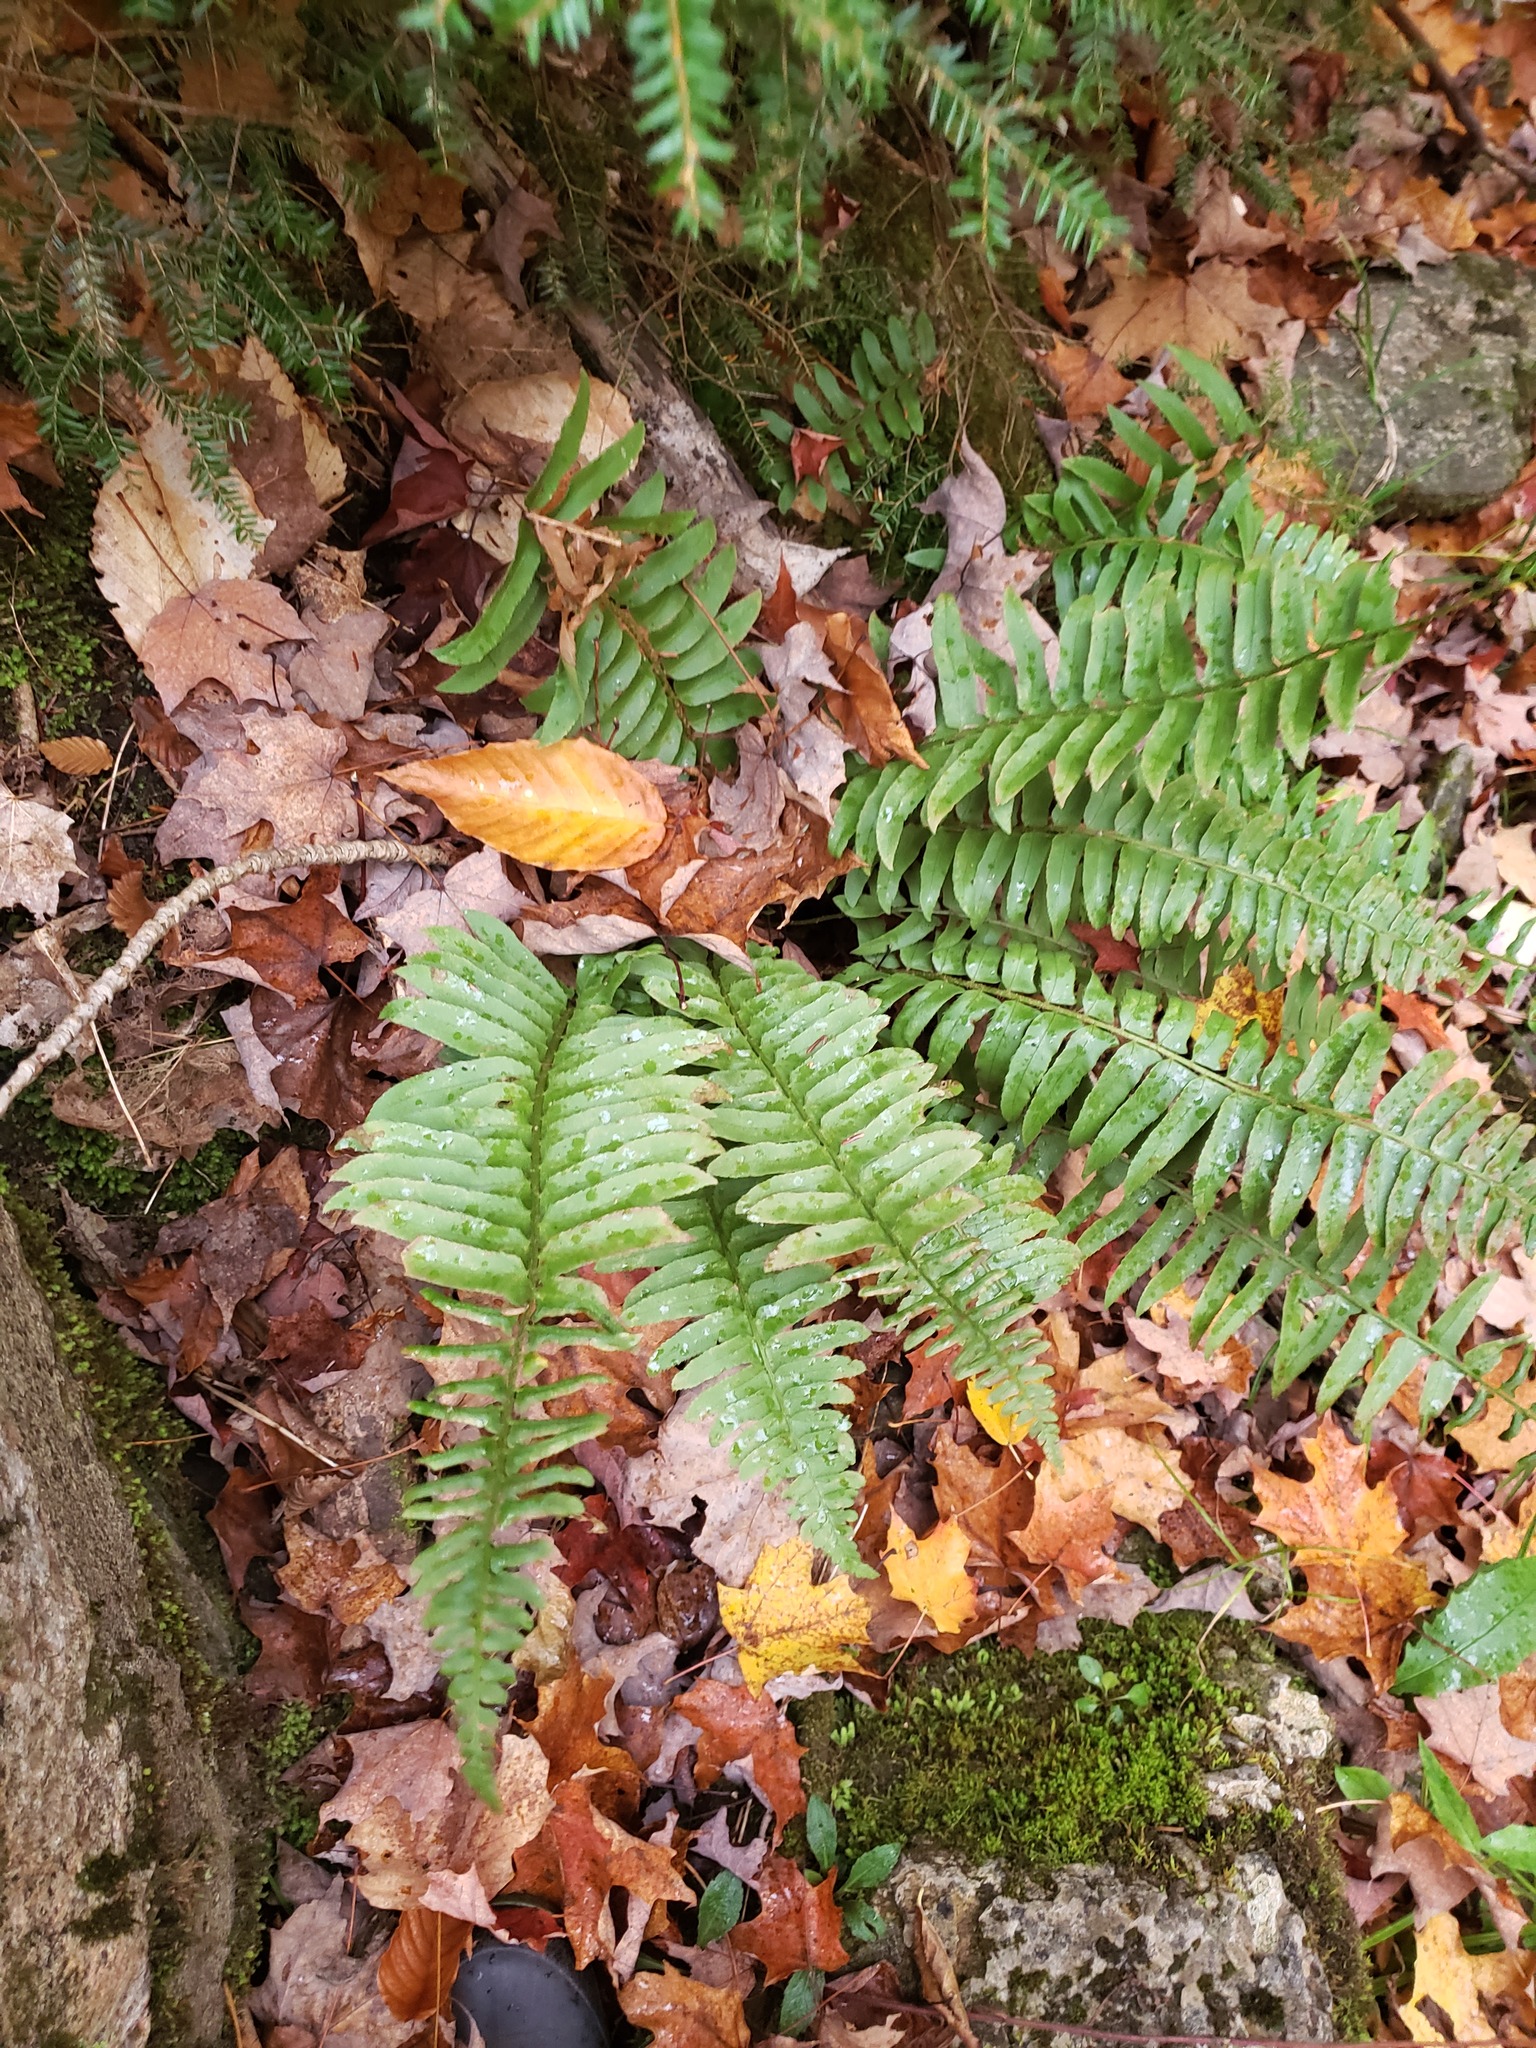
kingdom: Plantae
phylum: Tracheophyta
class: Polypodiopsida
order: Polypodiales
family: Dryopteridaceae
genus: Polystichum
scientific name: Polystichum acrostichoides
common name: Christmas fern
